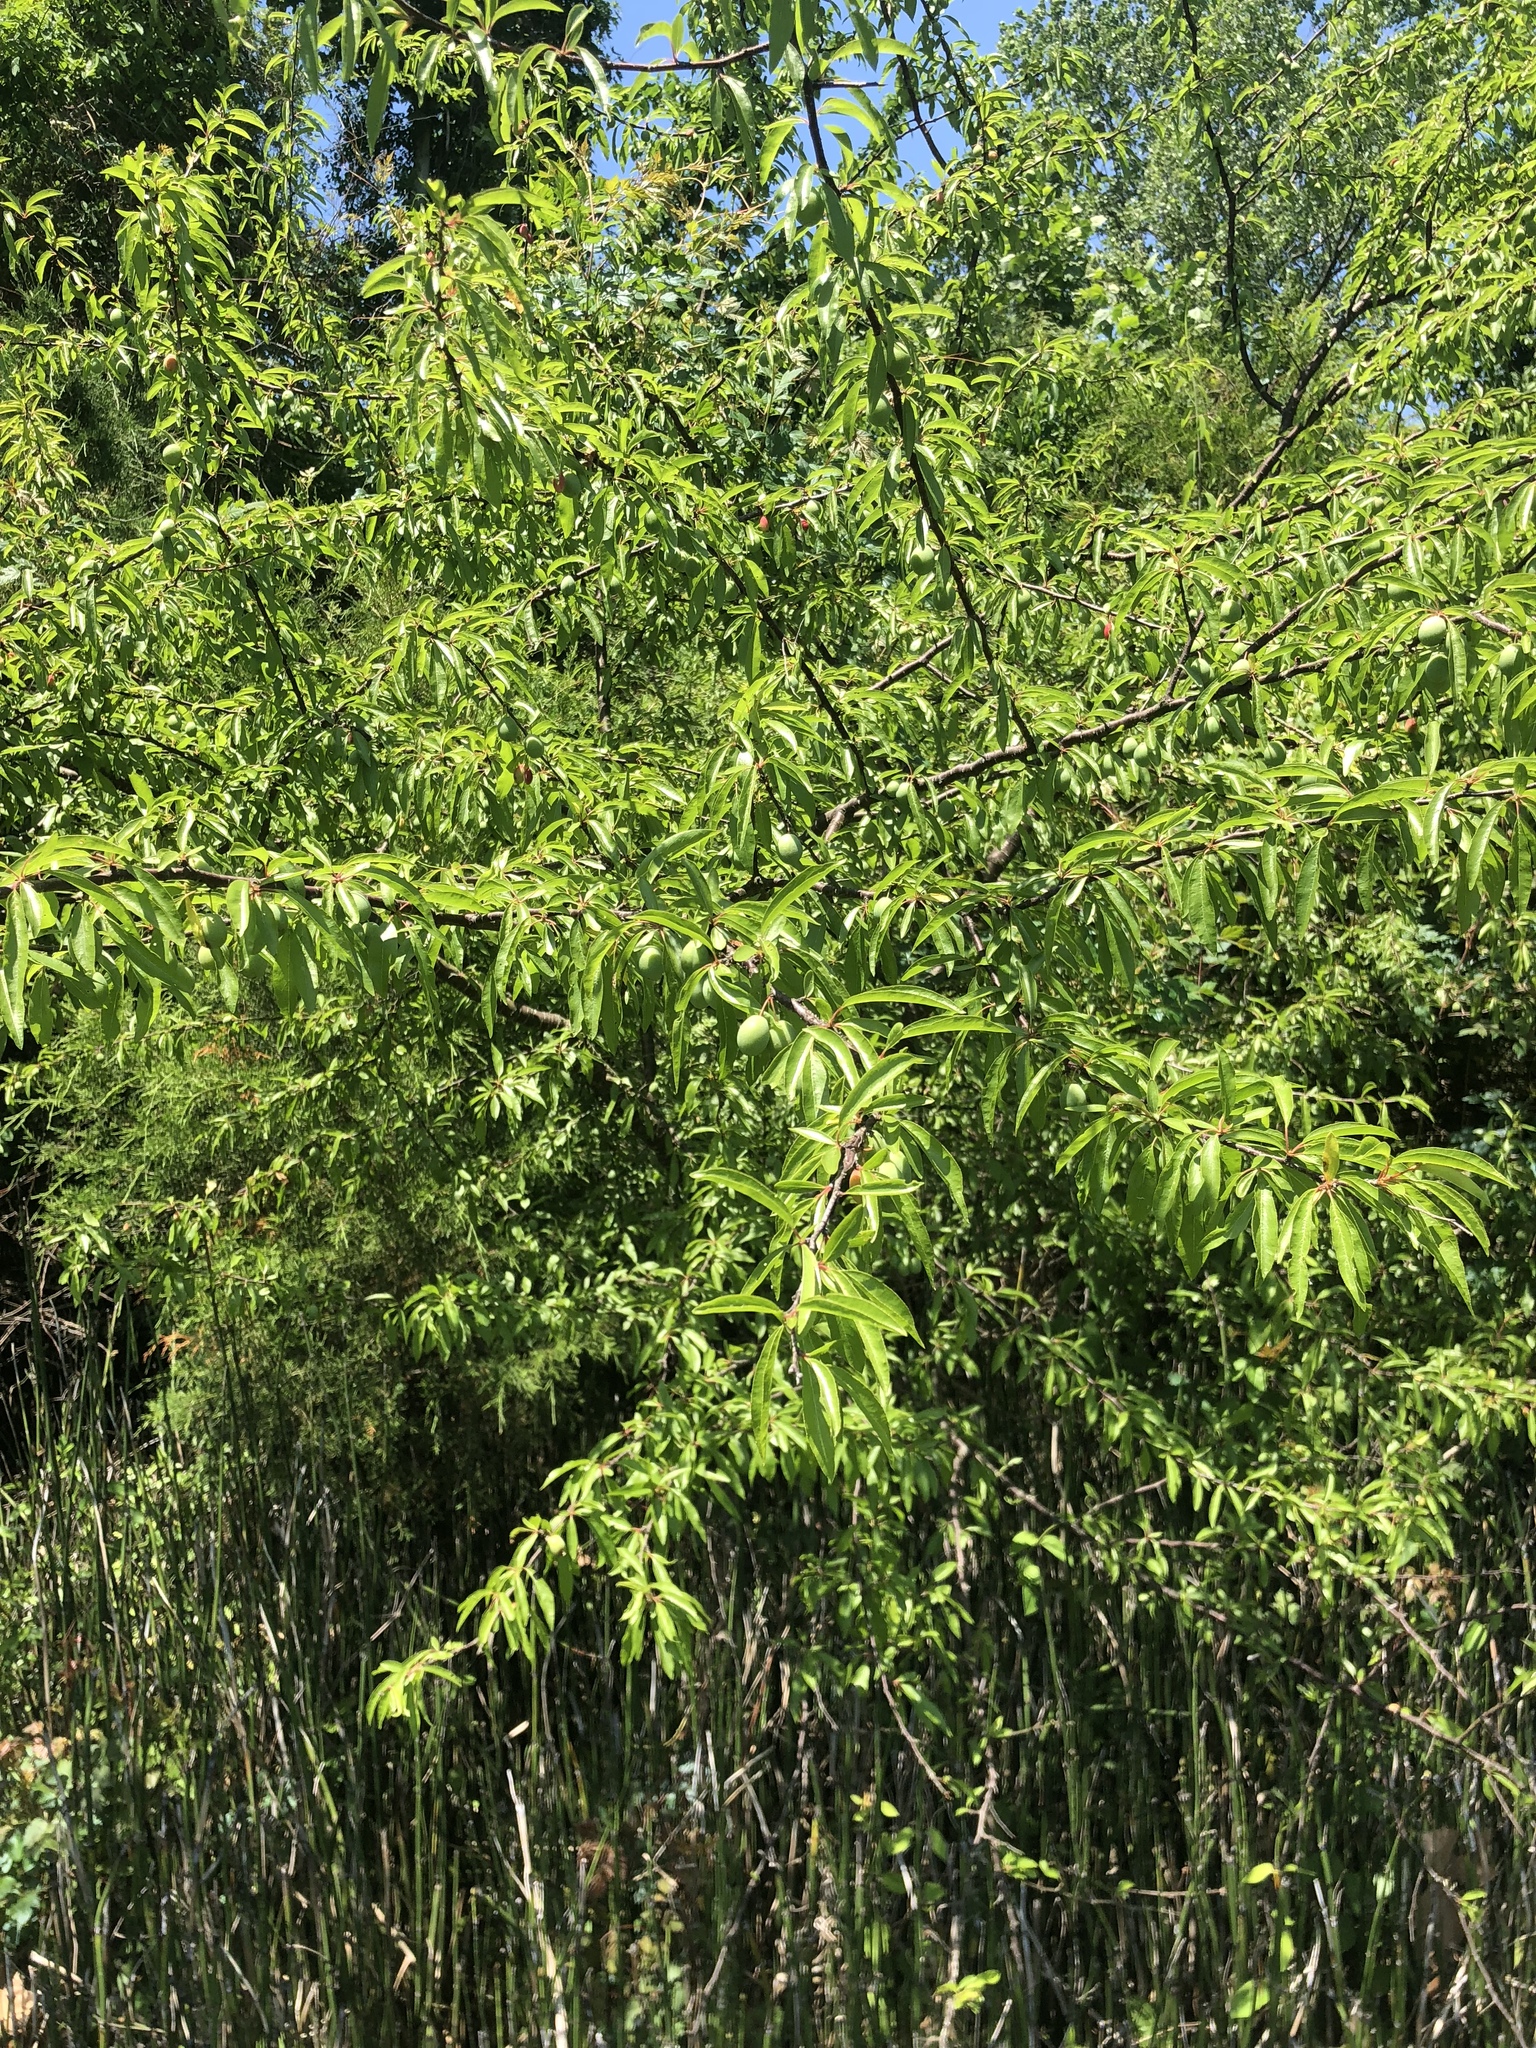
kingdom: Plantae
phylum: Tracheophyta
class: Magnoliopsida
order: Rosales
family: Rosaceae
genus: Prunus
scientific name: Prunus angustifolia
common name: Cherokee plum
